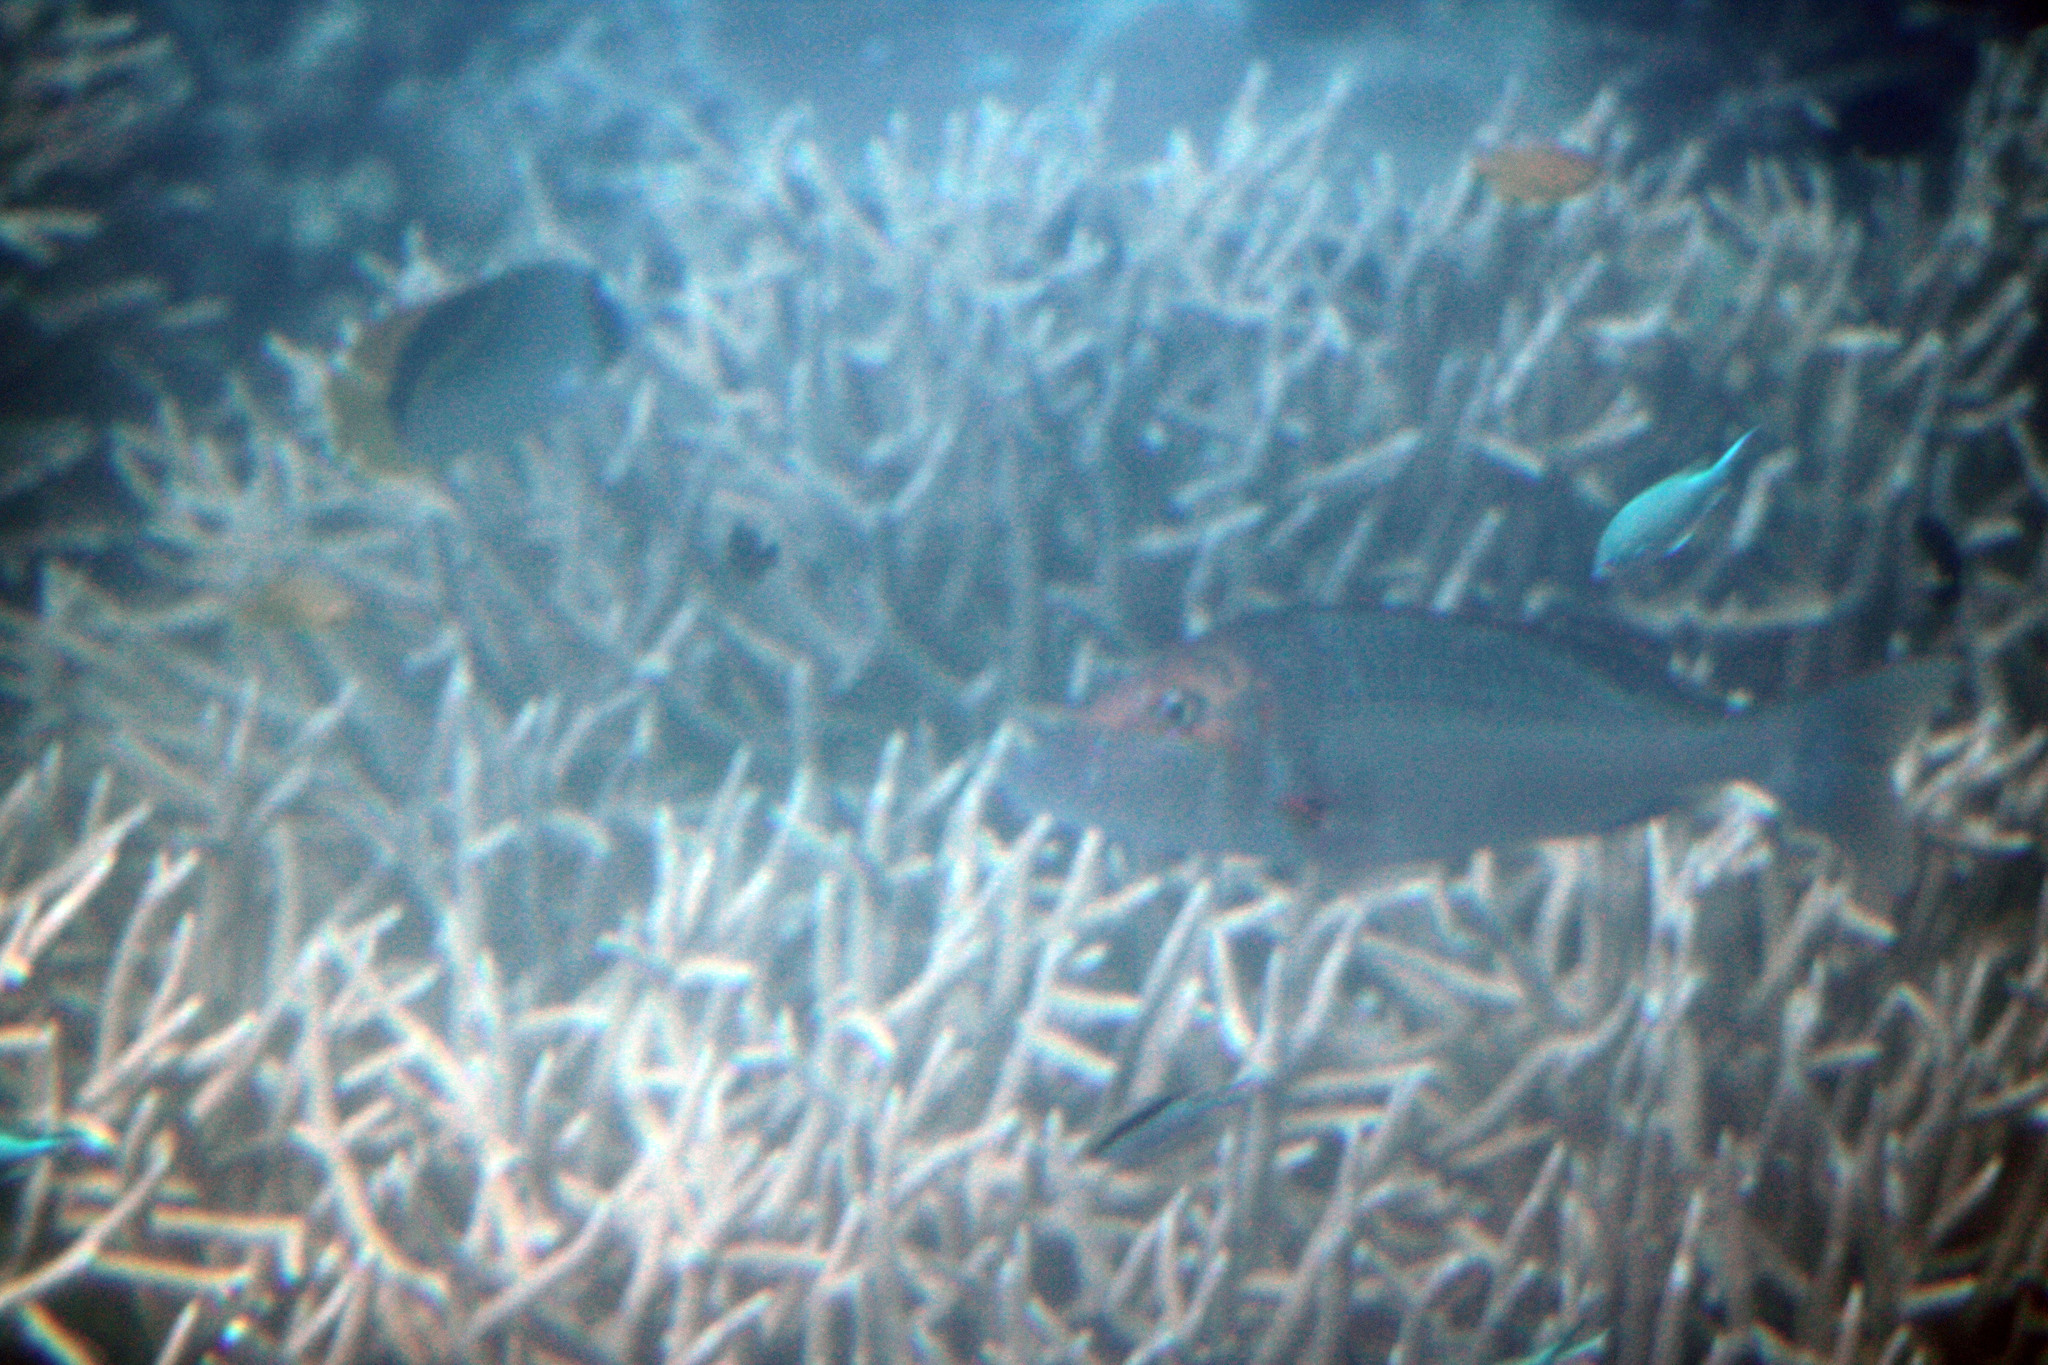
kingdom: Animalia
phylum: Chordata
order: Perciformes
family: Chaetodontidae
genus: Chaetodon
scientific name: Chaetodon lineolatus
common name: Lined butterflyfish
